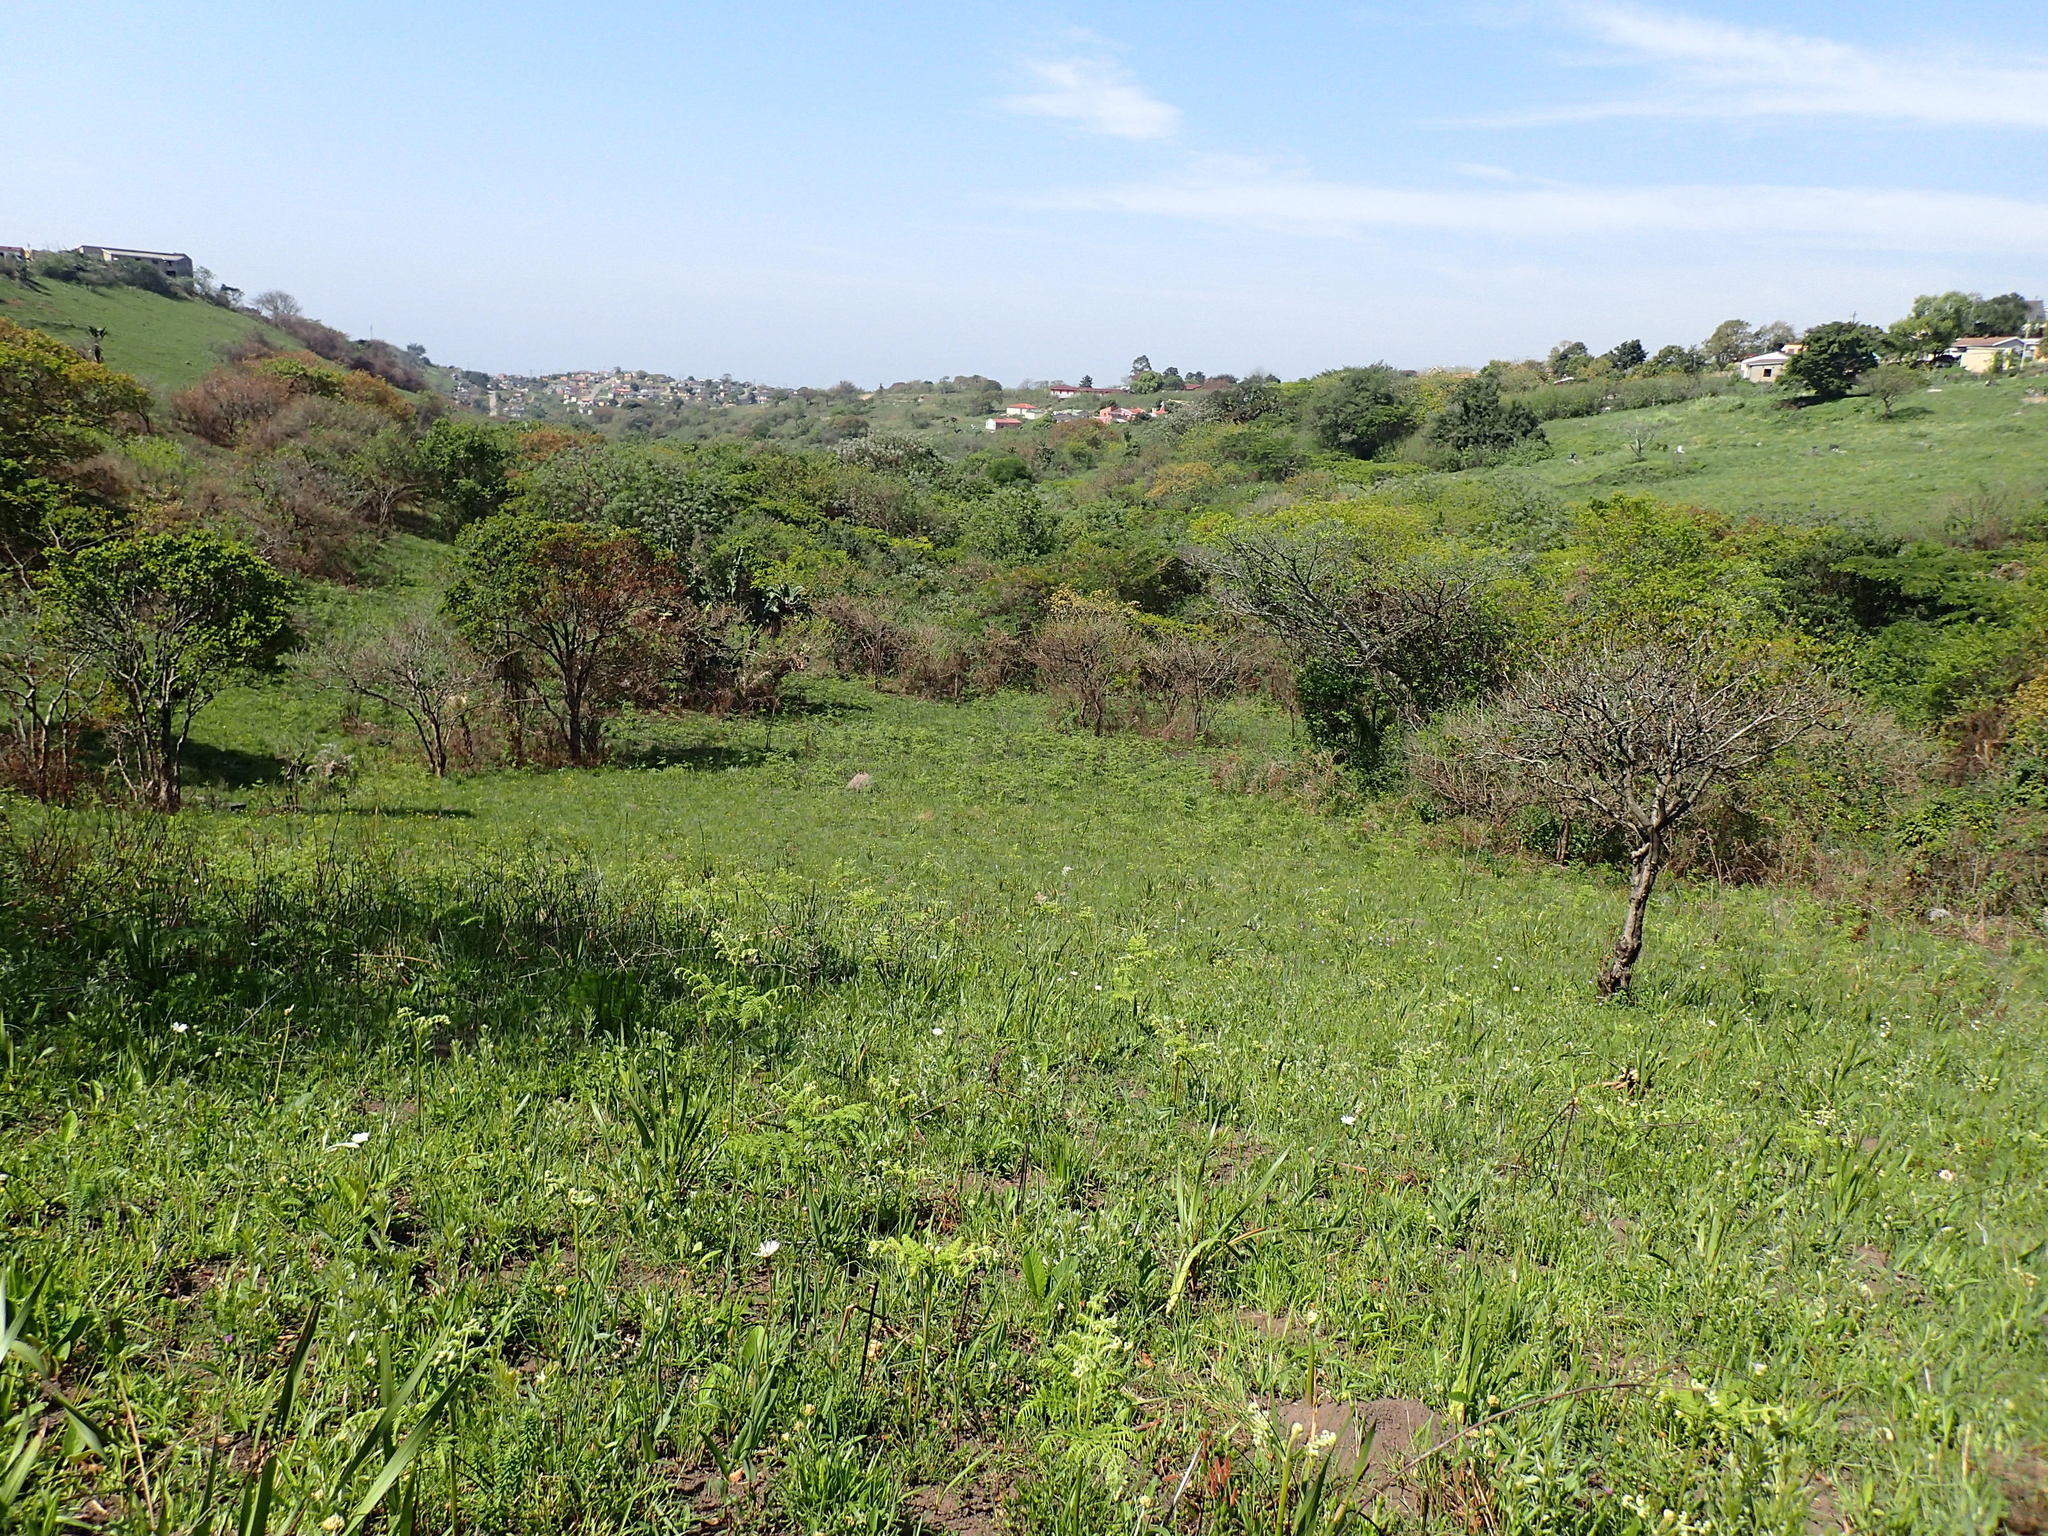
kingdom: Plantae
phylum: Tracheophyta
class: Magnoliopsida
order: Asterales
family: Asteraceae
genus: Gerbera
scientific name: Gerbera ambigua
